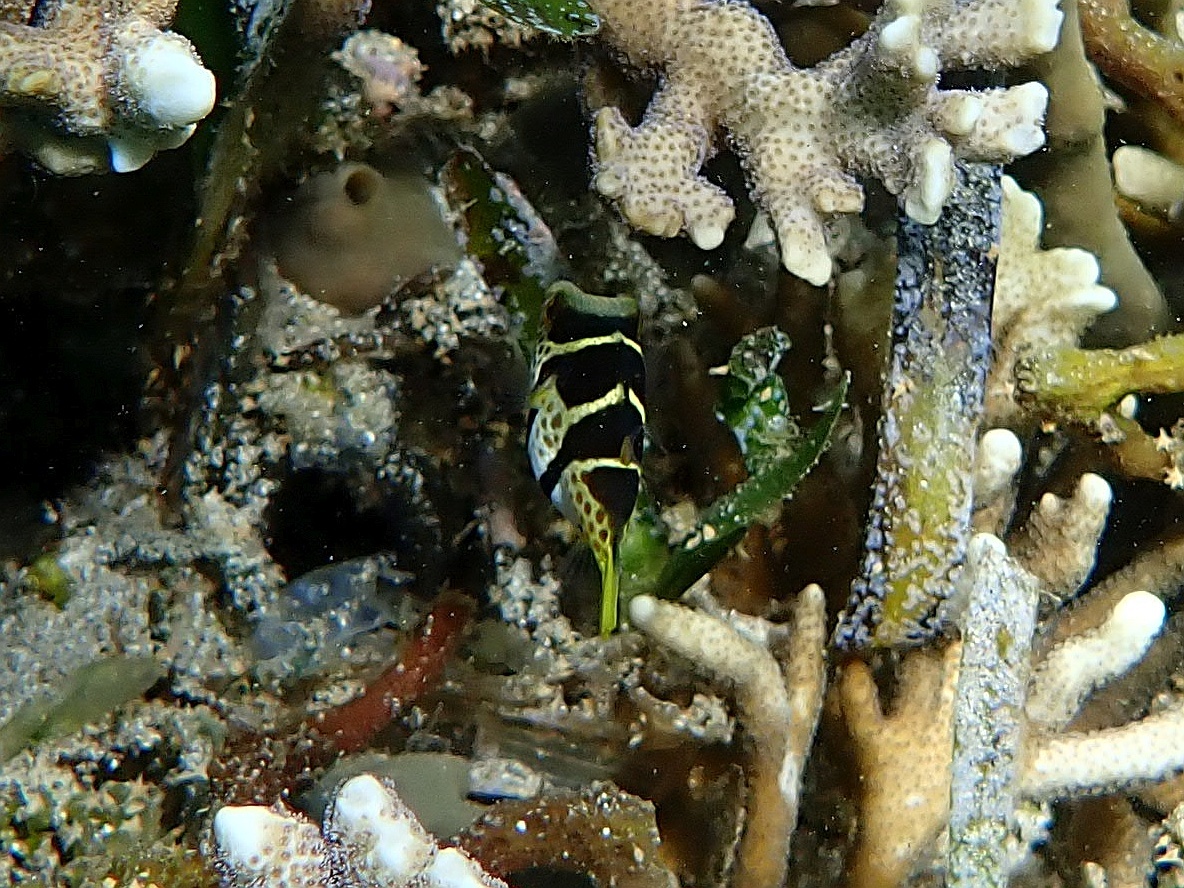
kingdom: Animalia
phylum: Chordata
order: Tetraodontiformes
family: Tetraodontidae
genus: Canthigaster
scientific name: Canthigaster valentini
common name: Banded toby
